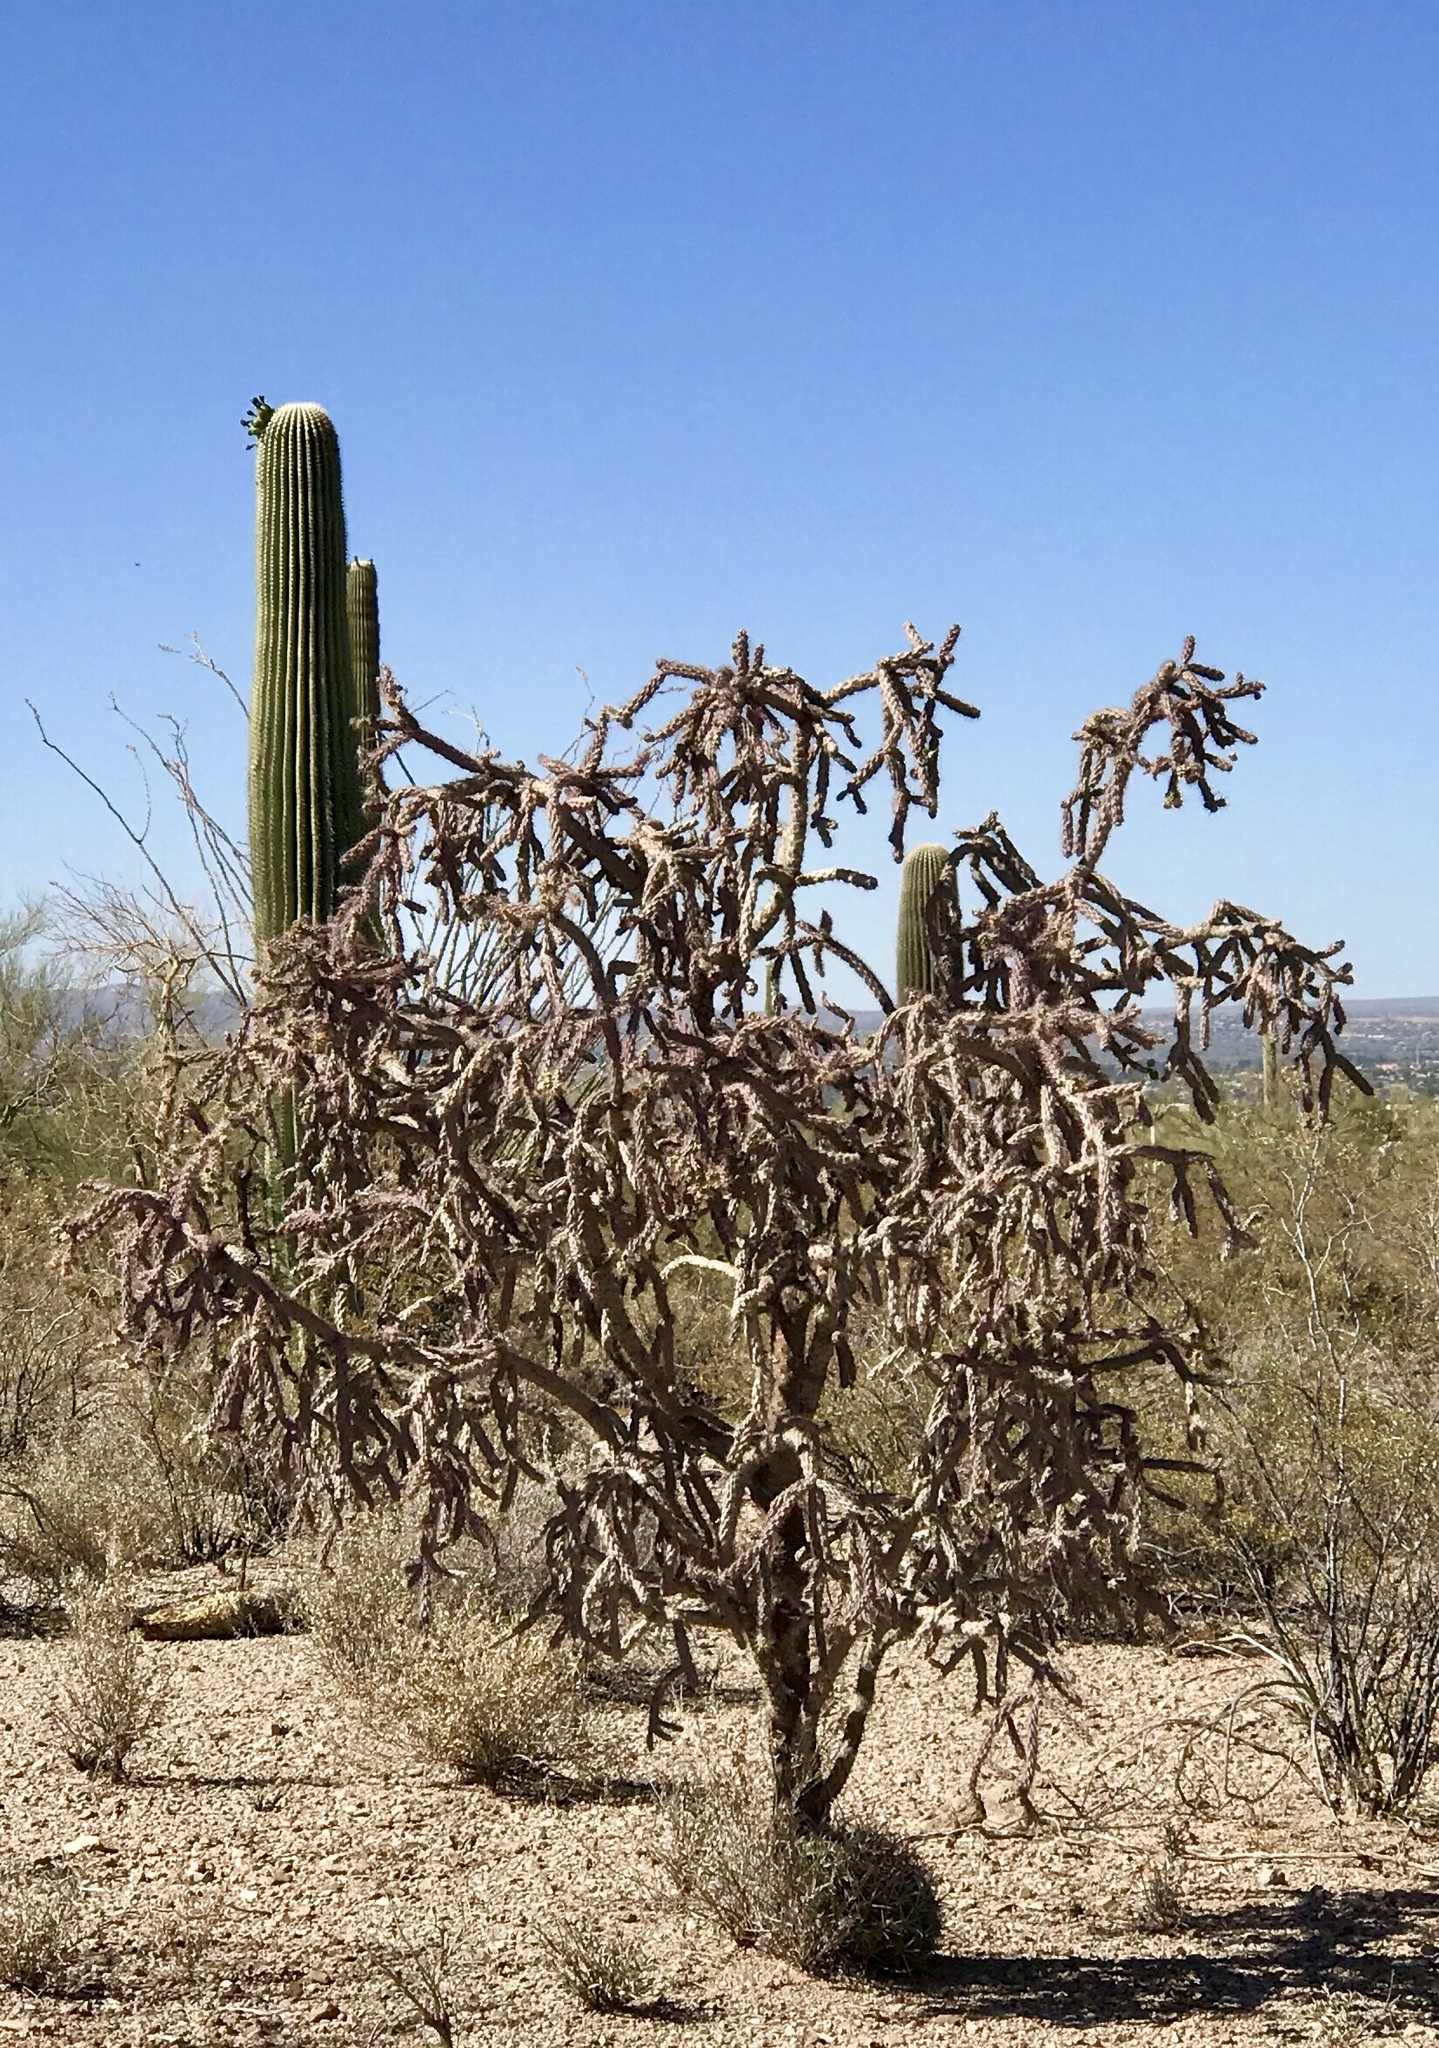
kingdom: Plantae
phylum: Tracheophyta
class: Magnoliopsida
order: Caryophyllales
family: Cactaceae
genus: Cylindropuntia
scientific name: Cylindropuntia thurberi
